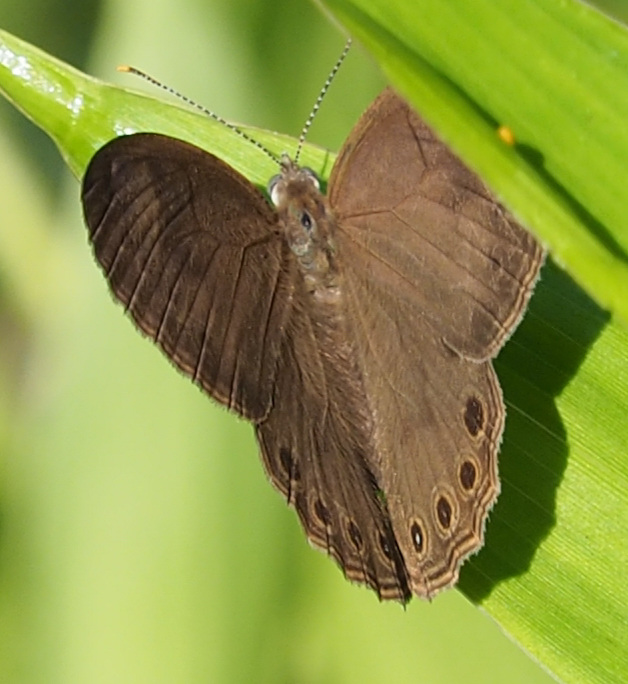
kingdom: Animalia
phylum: Arthropoda
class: Insecta
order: Lepidoptera
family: Nymphalidae
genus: Lethe
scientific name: Lethe eurydice
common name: Eyed brown
